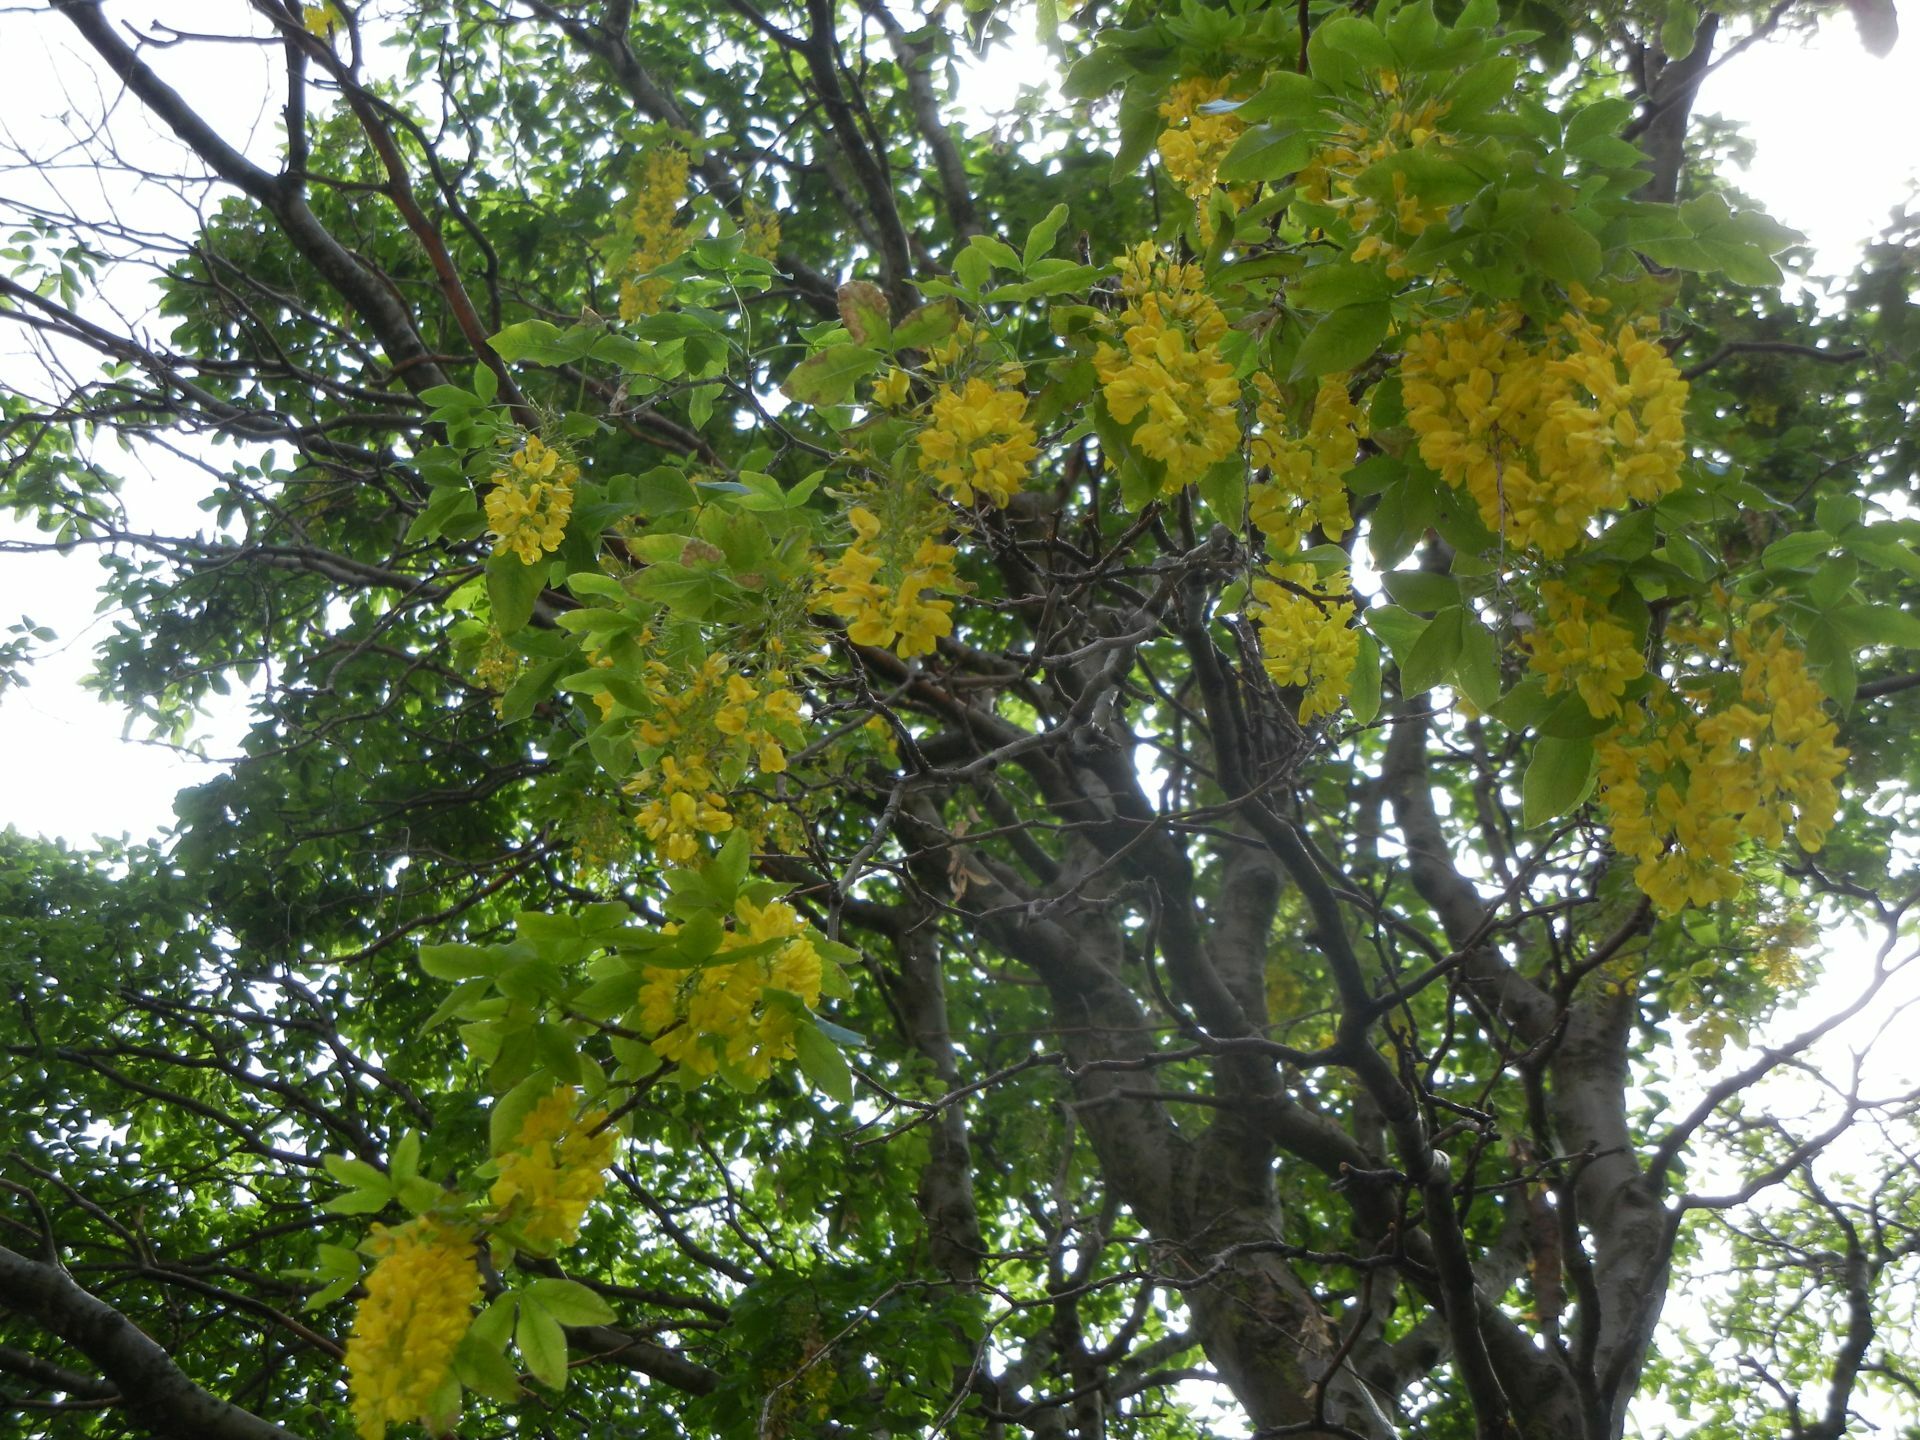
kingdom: Plantae
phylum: Tracheophyta
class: Magnoliopsida
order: Fabales
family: Fabaceae
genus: Laburnum
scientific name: Laburnum anagyroides
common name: Laburnum
